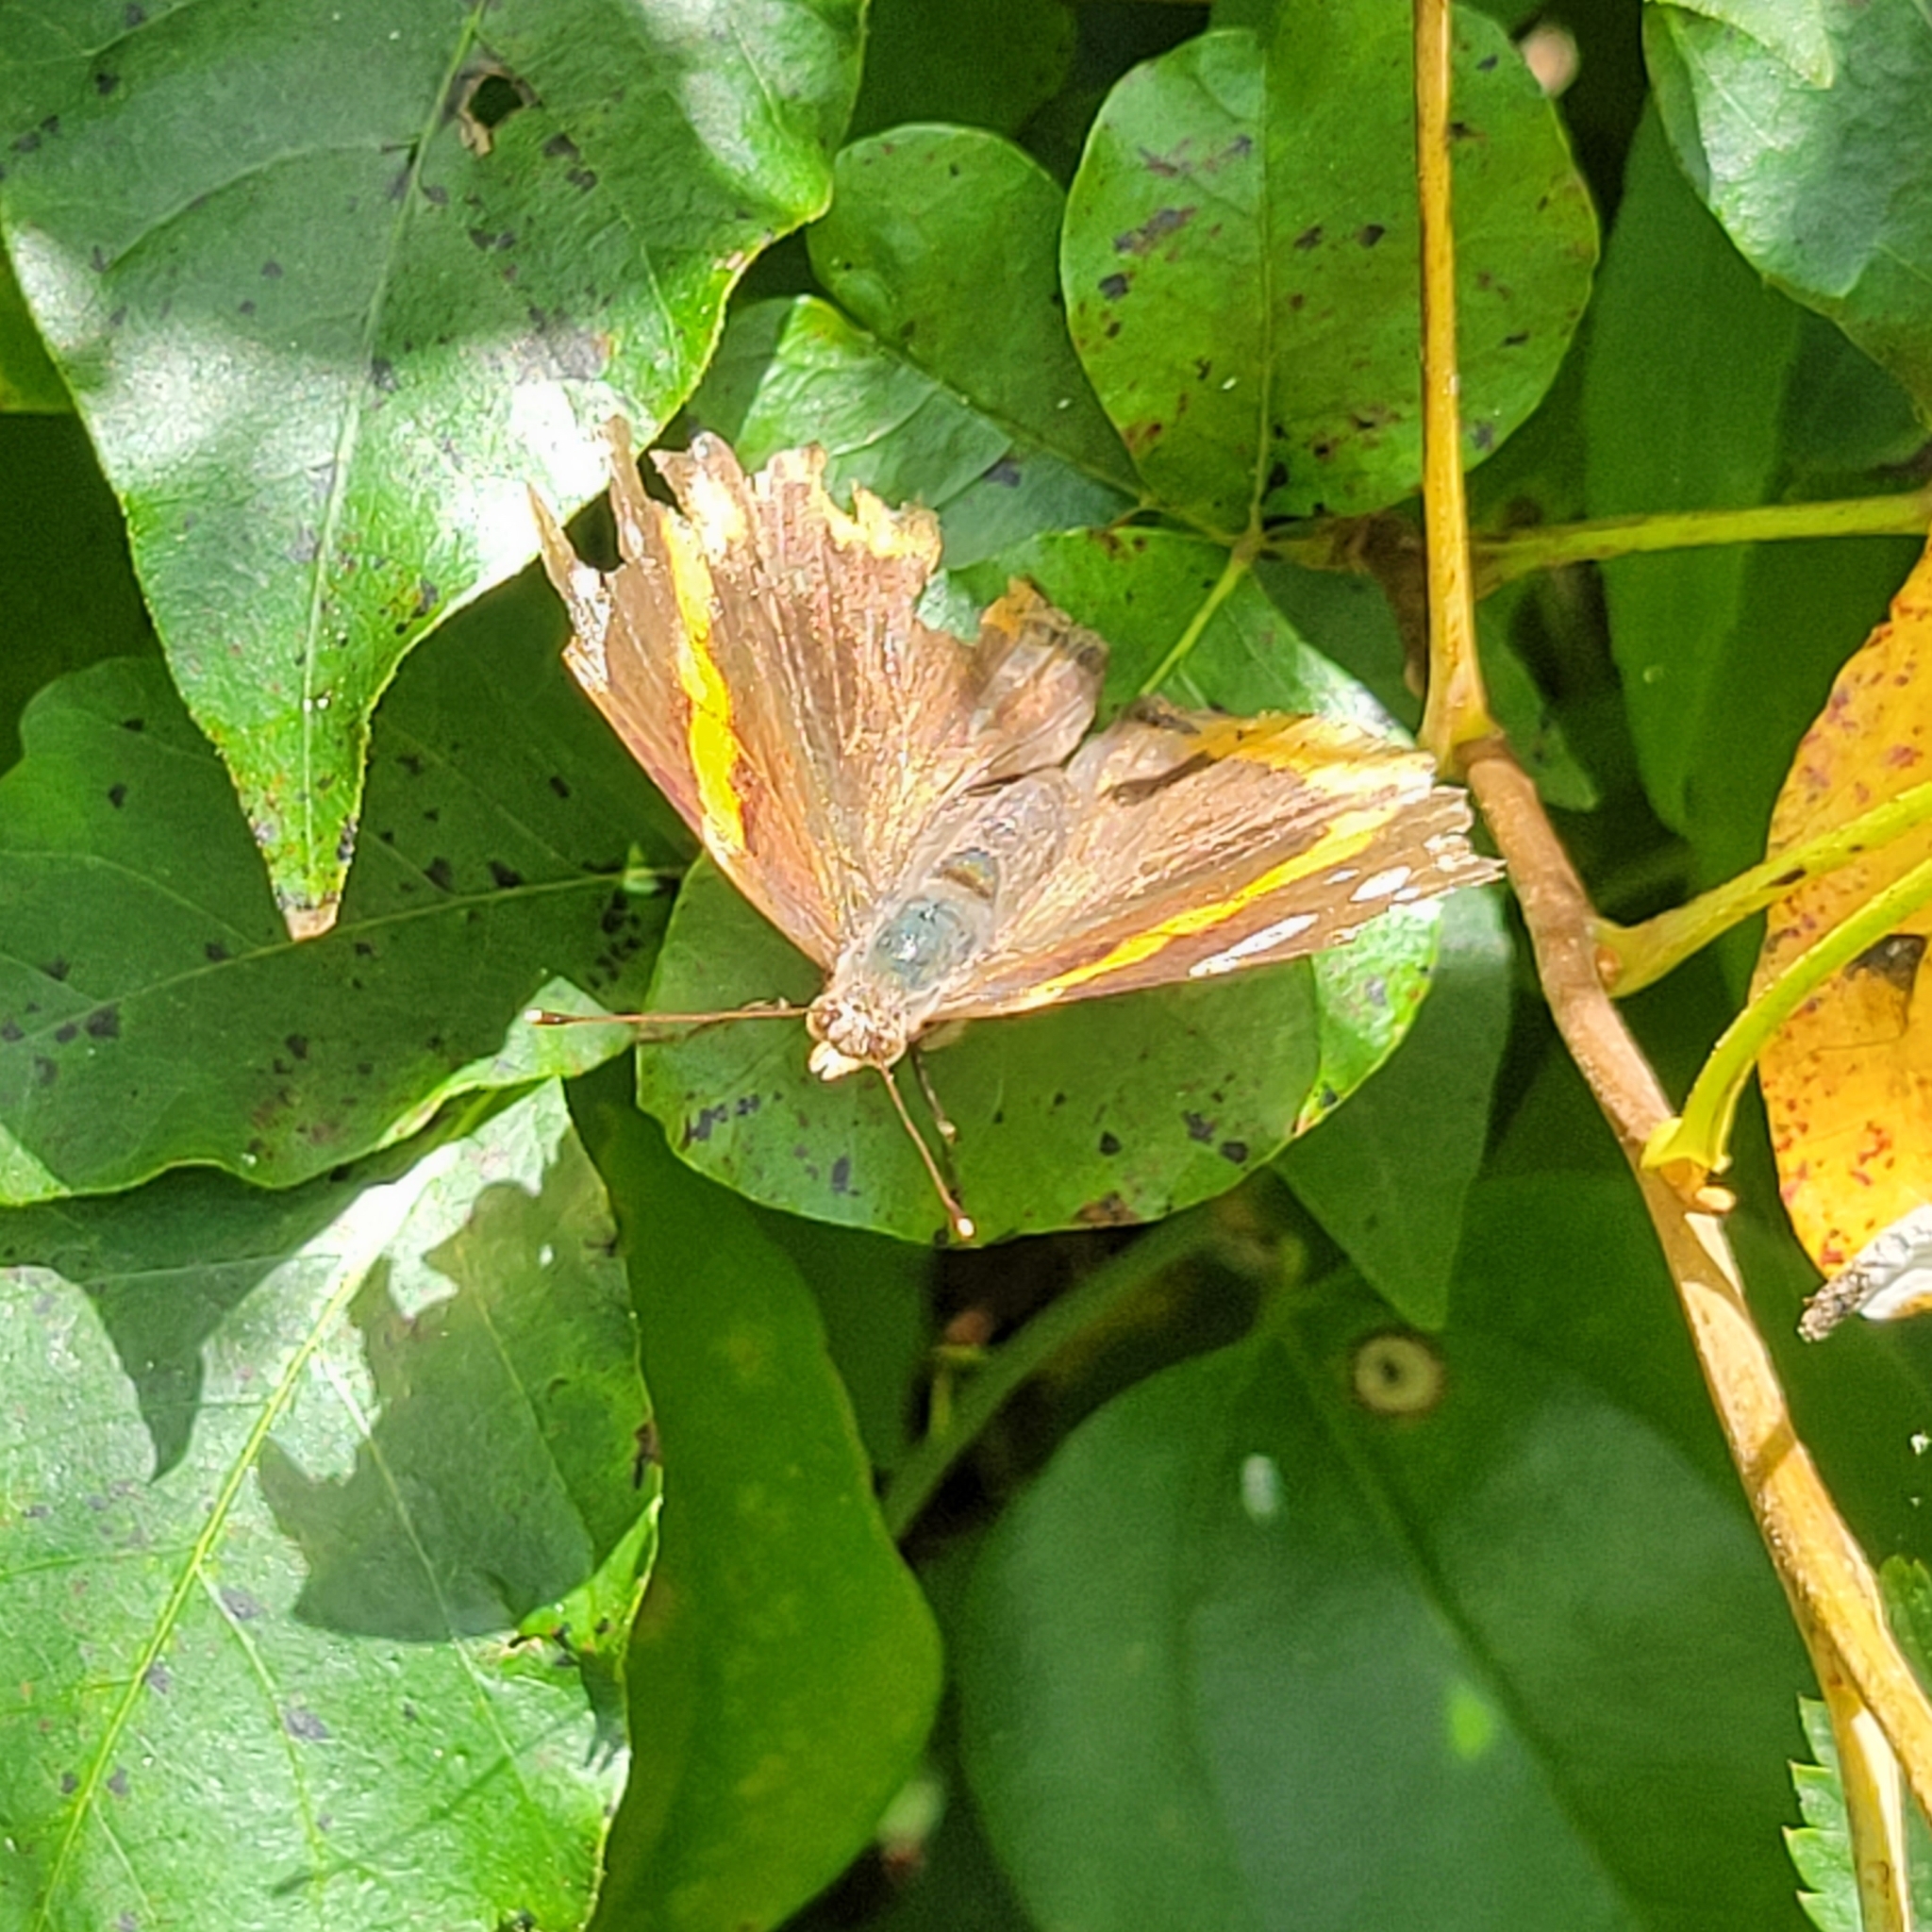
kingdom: Animalia
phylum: Arthropoda
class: Insecta
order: Lepidoptera
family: Nymphalidae
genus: Vanessa
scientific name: Vanessa atalanta
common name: Red admiral
